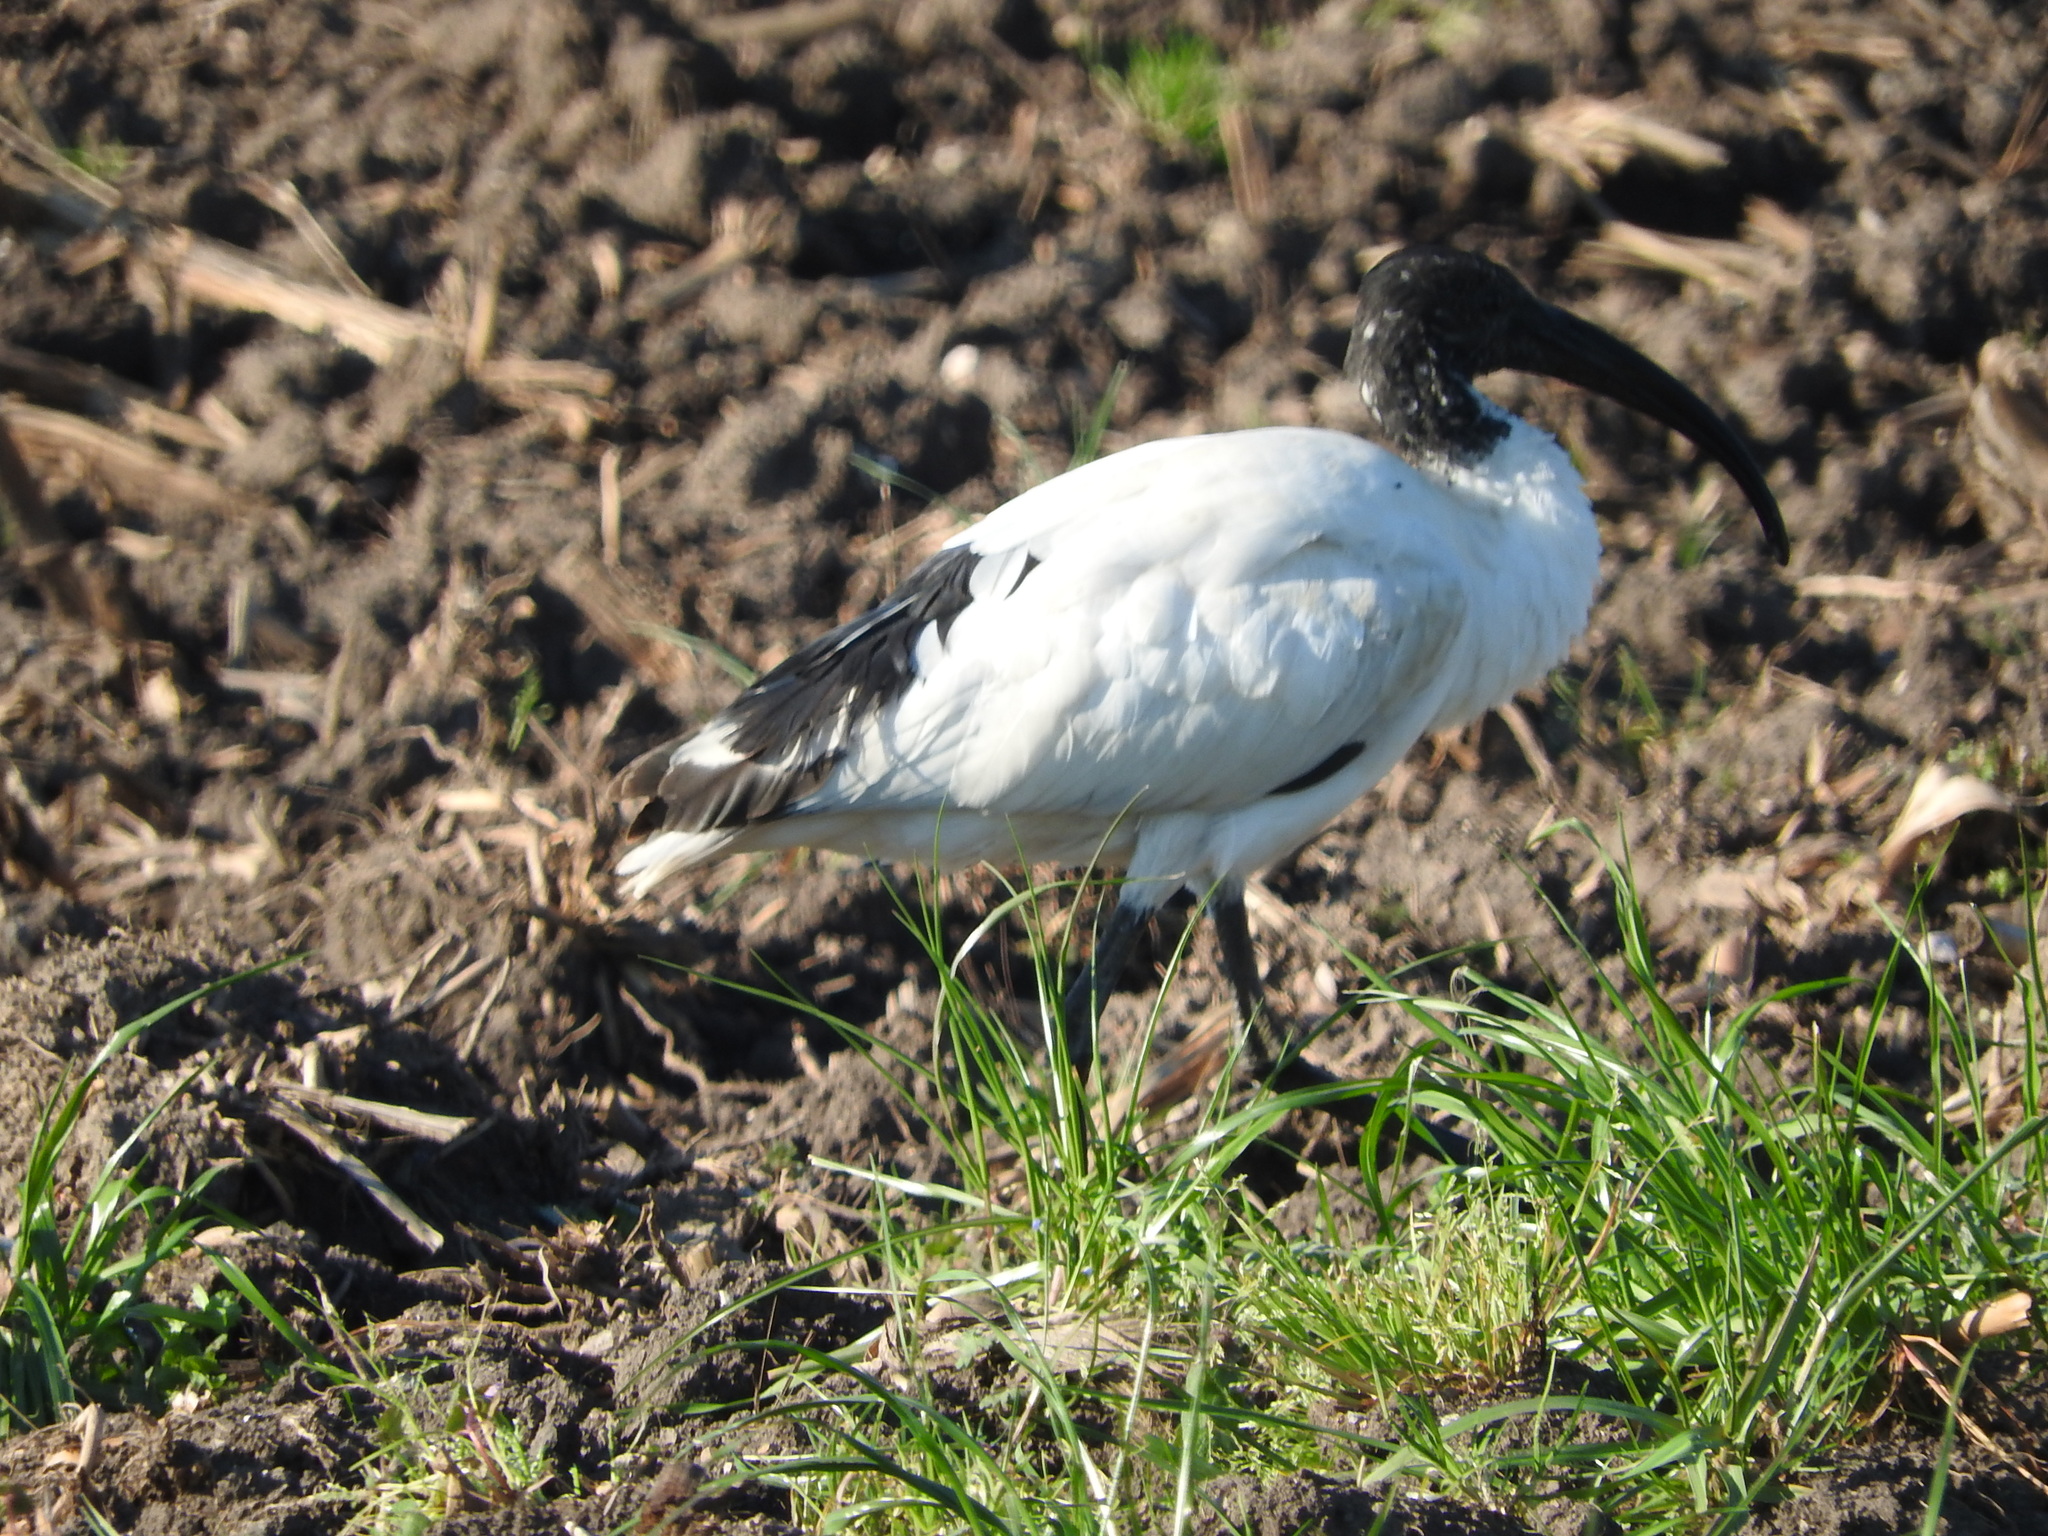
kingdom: Animalia
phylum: Chordata
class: Aves
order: Pelecaniformes
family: Threskiornithidae
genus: Threskiornis
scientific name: Threskiornis aethiopicus
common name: Sacred ibis
